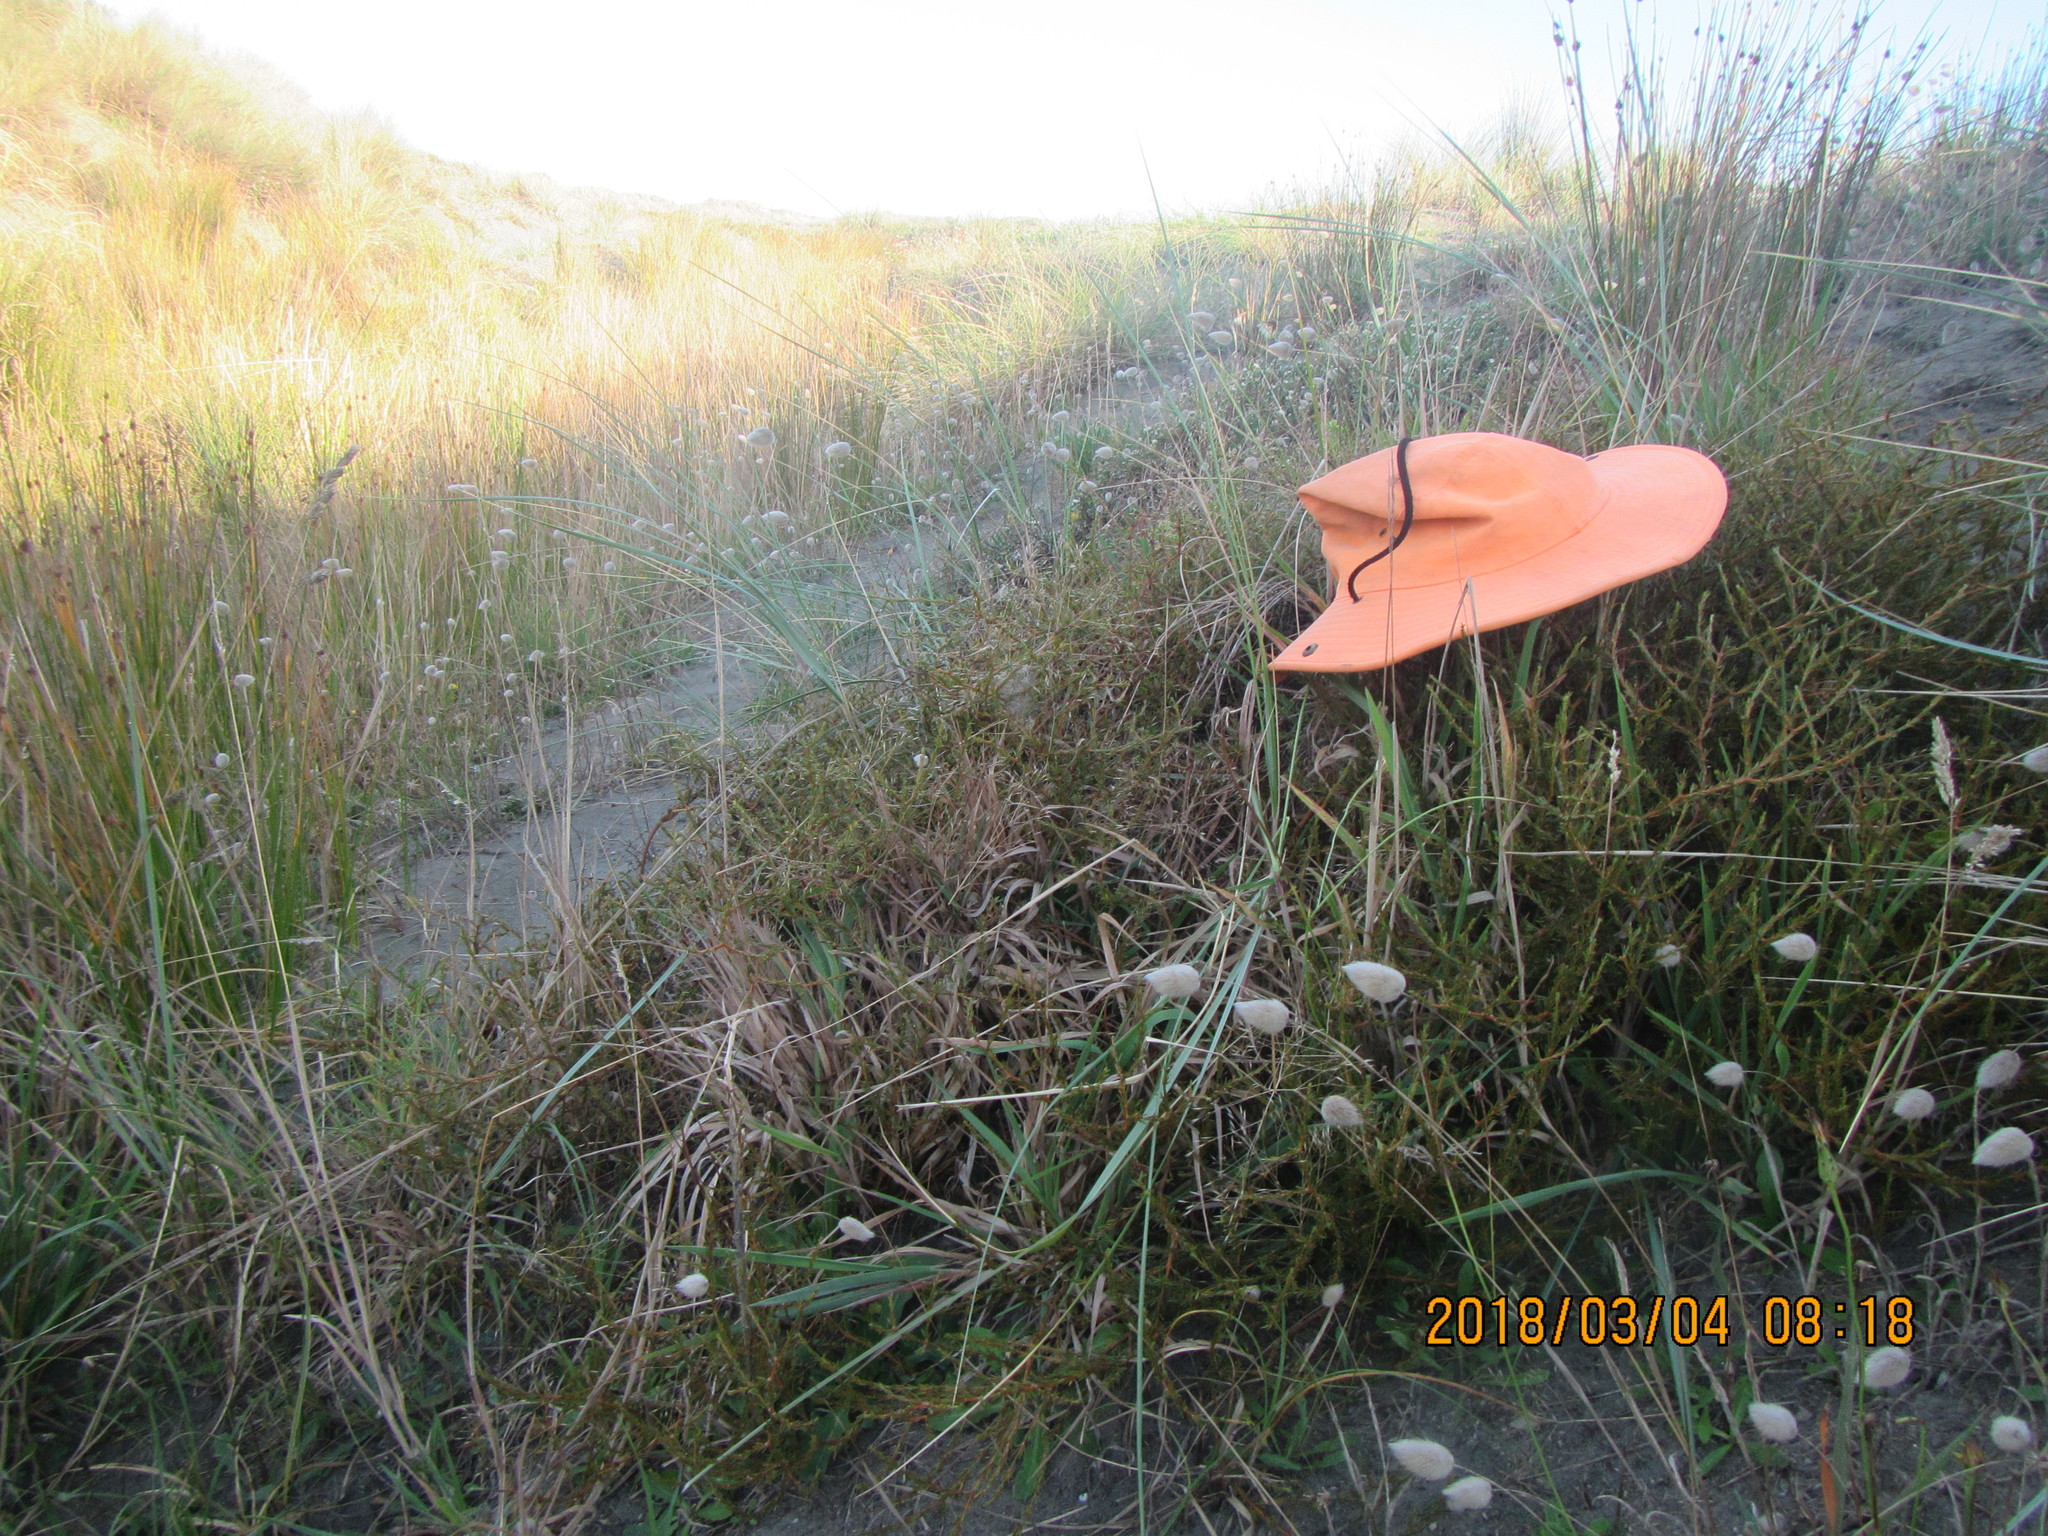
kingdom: Animalia
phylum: Arthropoda
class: Arachnida
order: Araneae
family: Pisauridae
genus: Dolomedes
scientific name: Dolomedes minor
